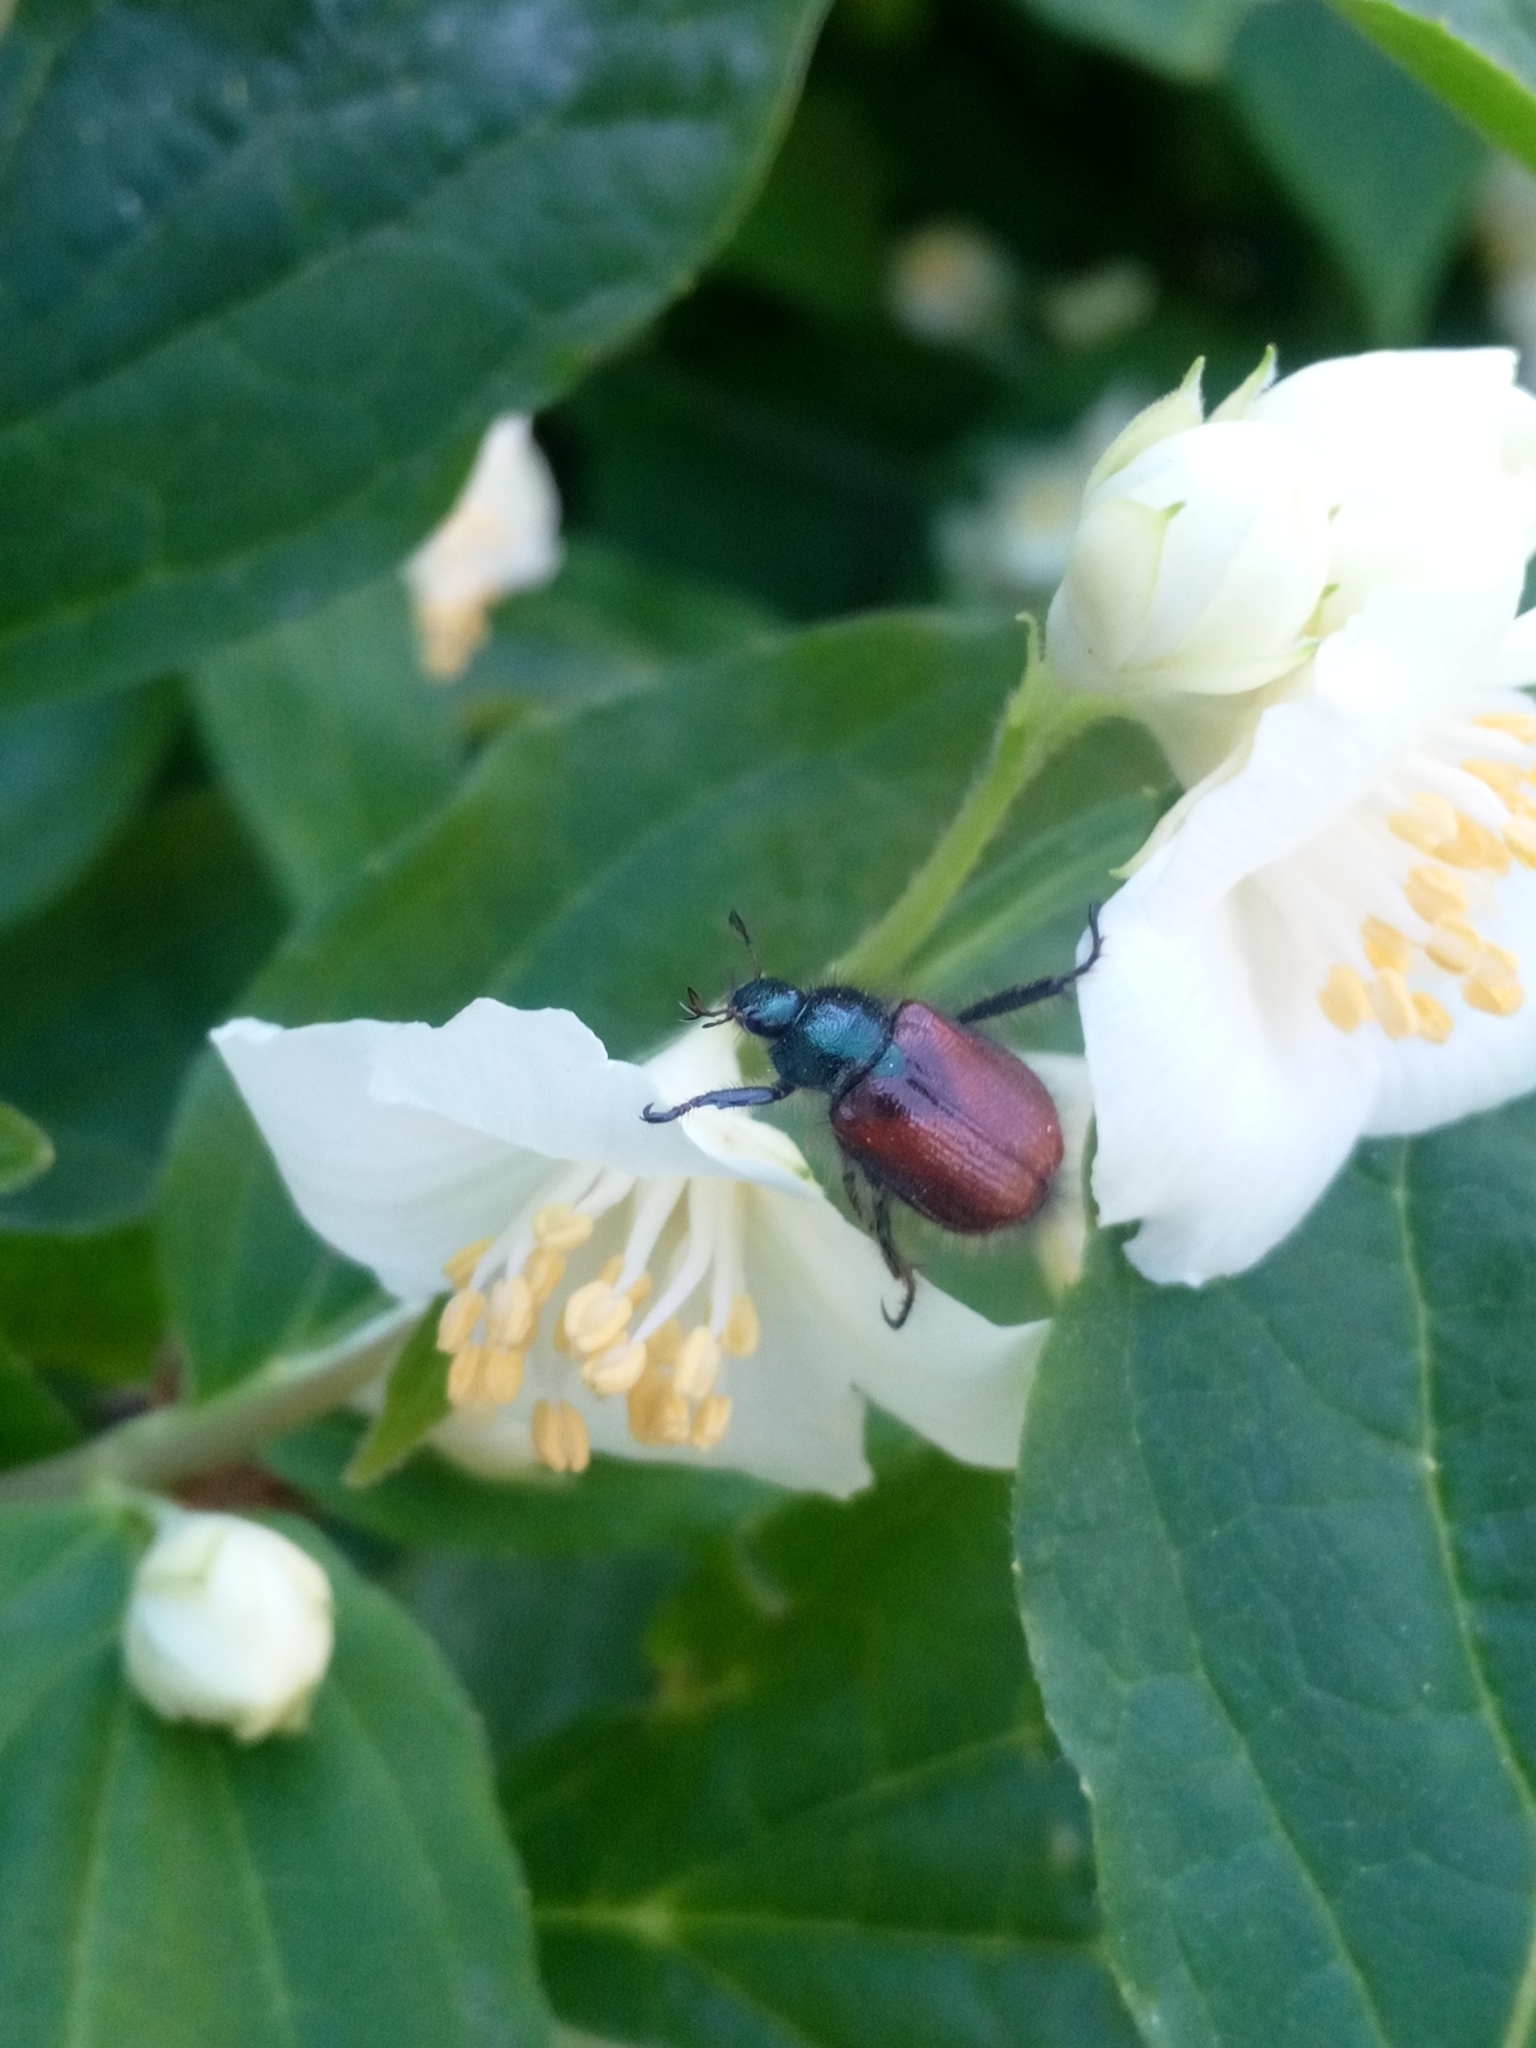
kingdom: Animalia
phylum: Arthropoda
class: Insecta
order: Coleoptera
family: Scarabaeidae
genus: Phyllopertha
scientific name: Phyllopertha horticola
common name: Garden chafer
